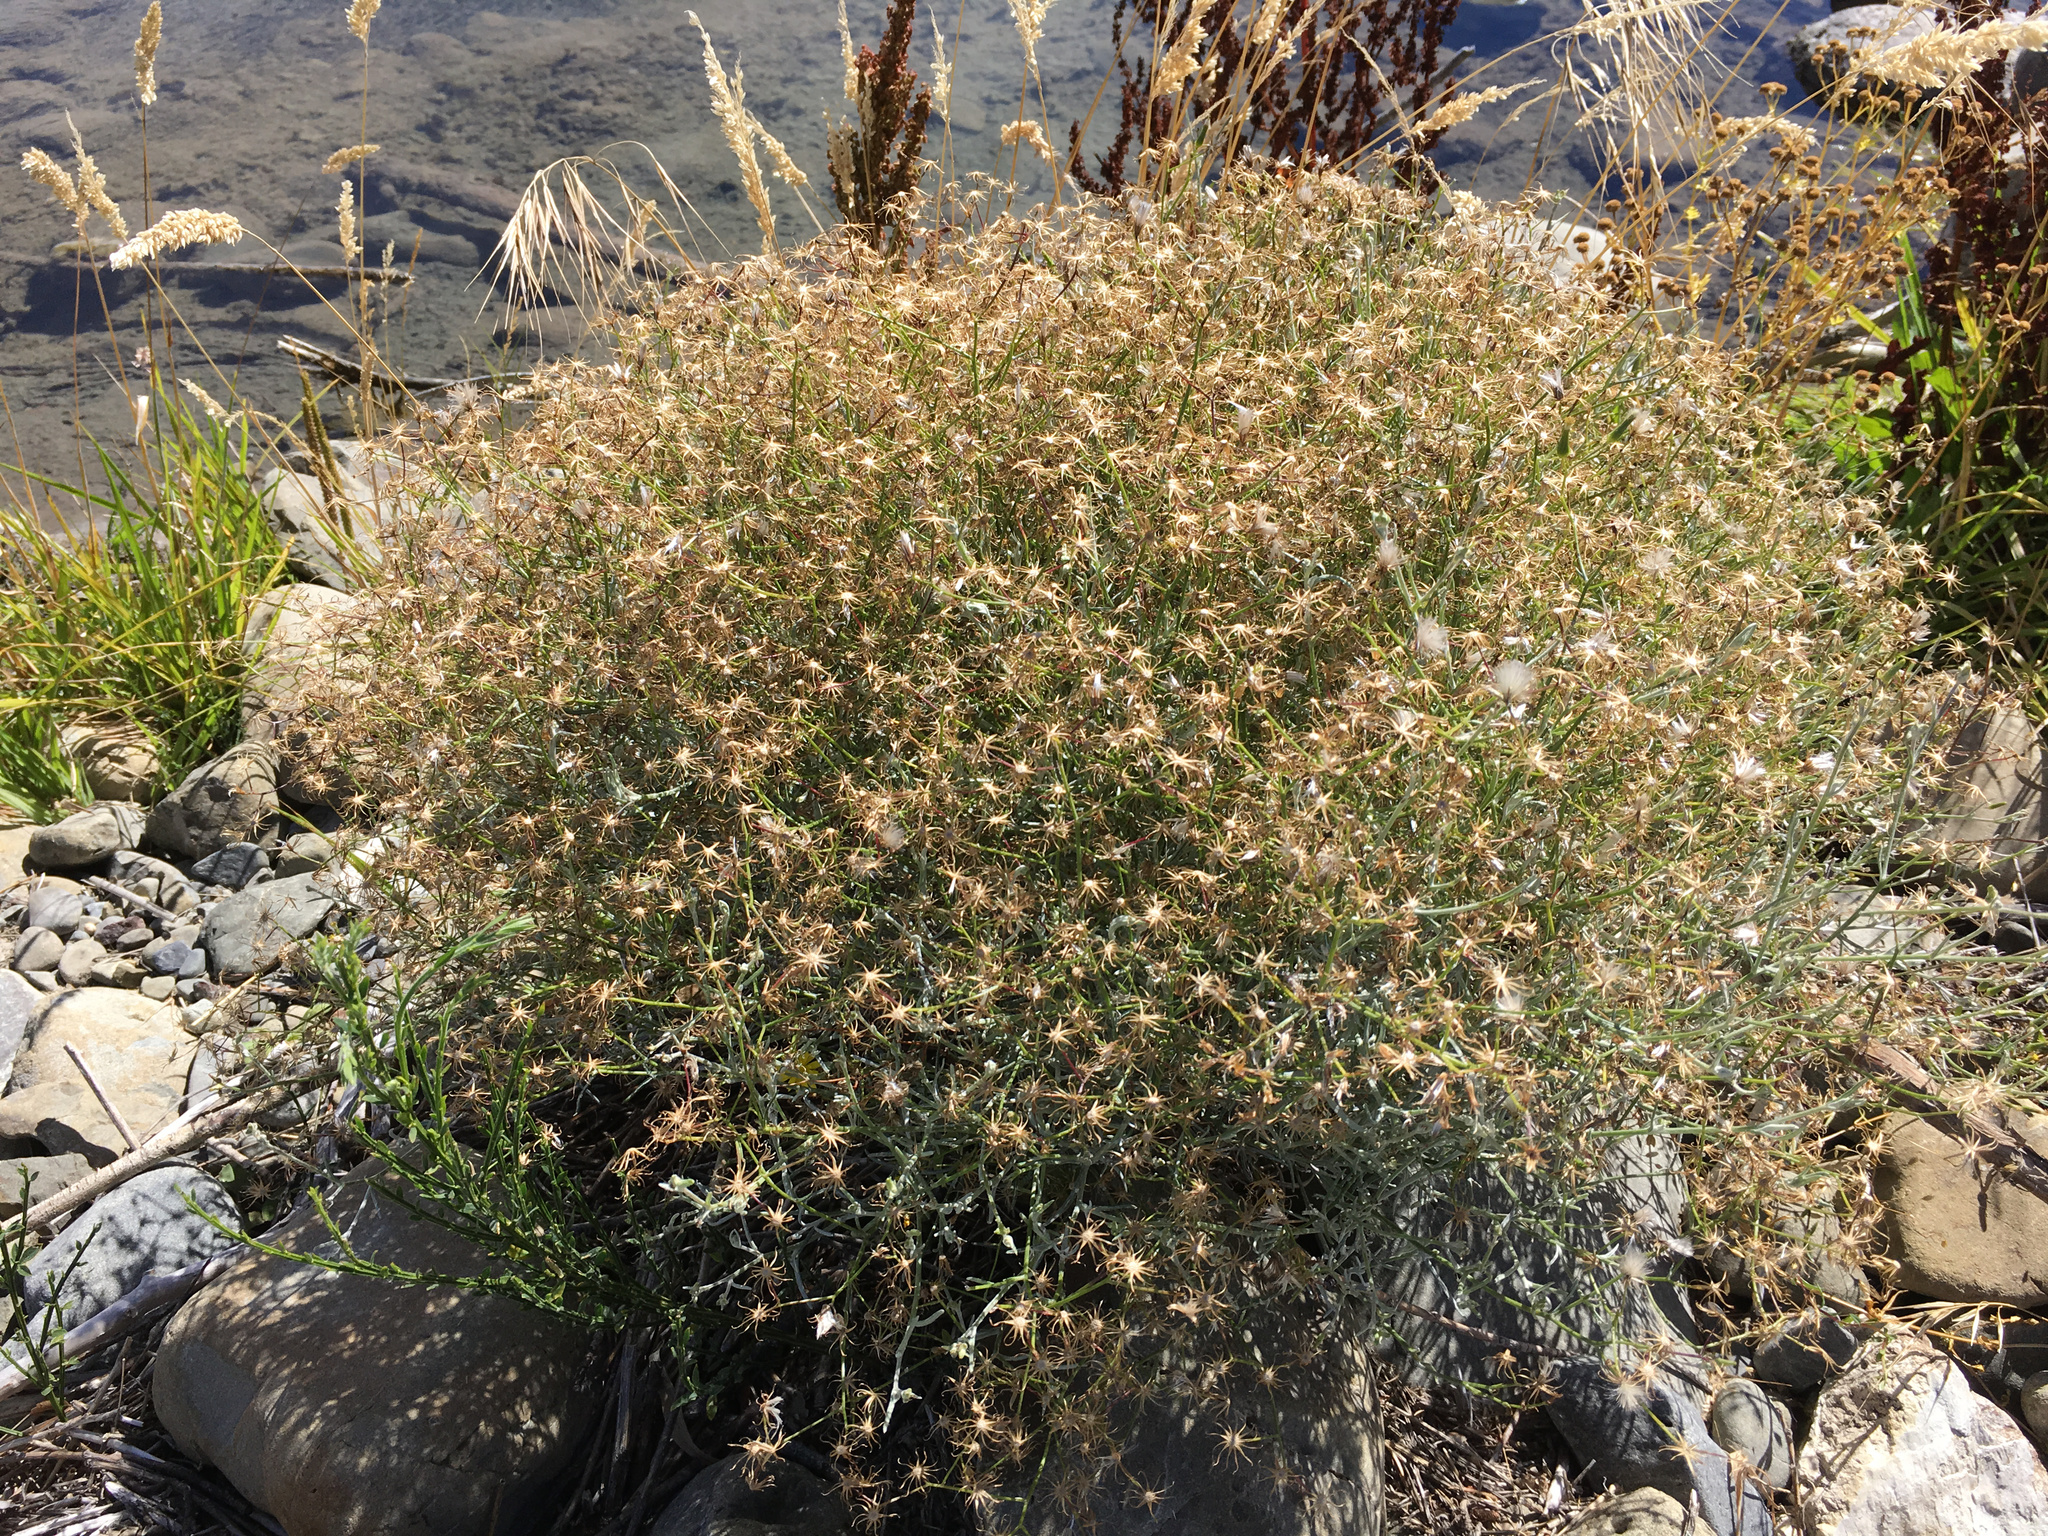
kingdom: Plantae
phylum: Tracheophyta
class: Magnoliopsida
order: Asterales
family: Asteraceae
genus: Senecio
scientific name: Senecio quadridentatus
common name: Cotton fireweed
